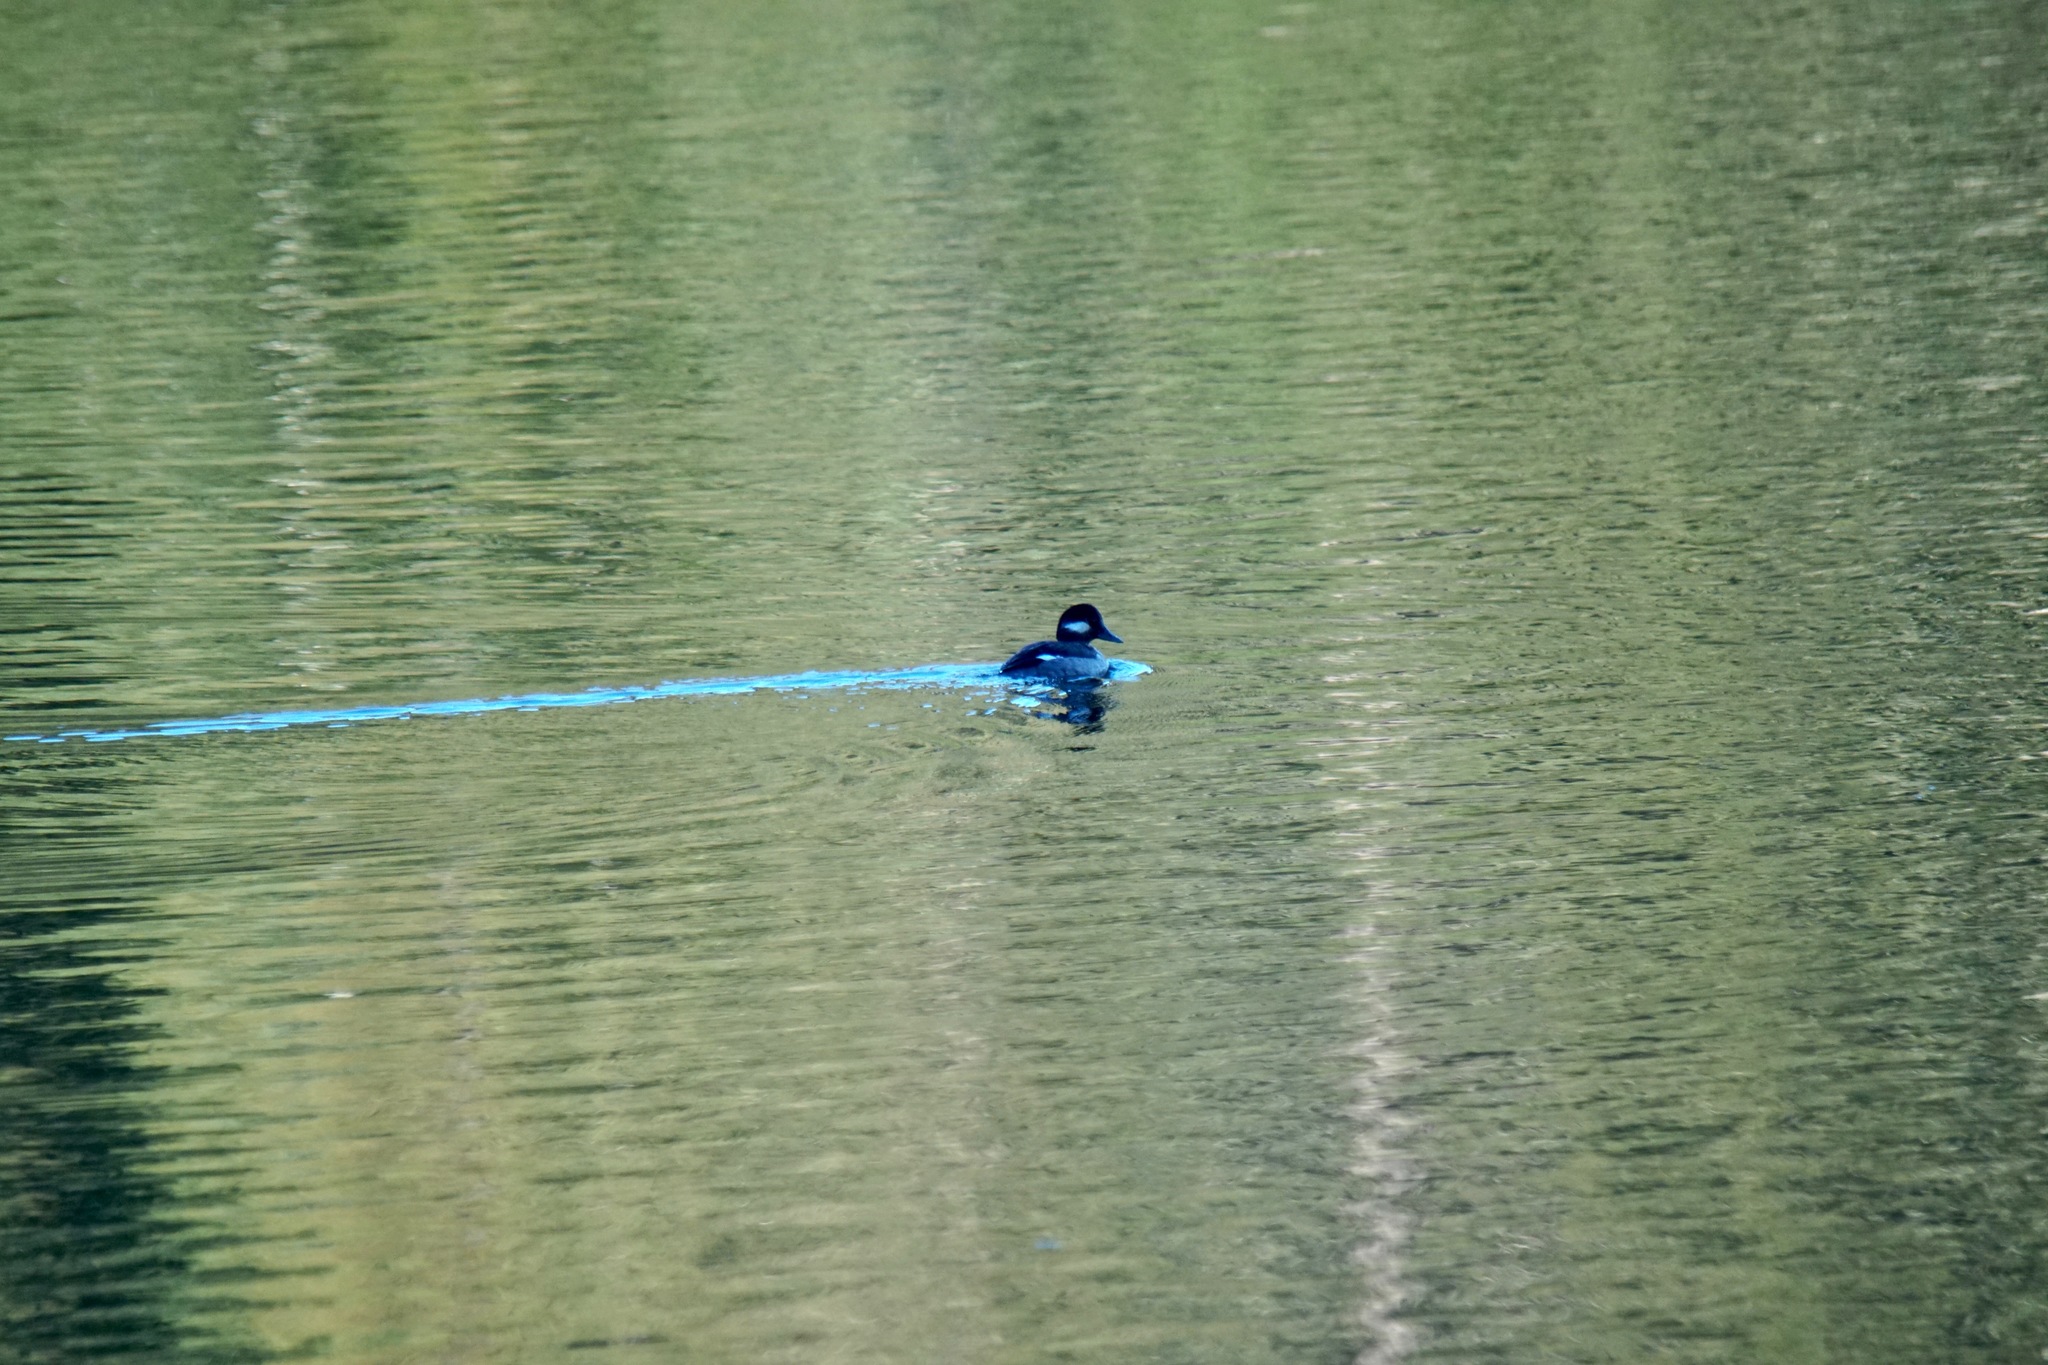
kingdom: Animalia
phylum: Chordata
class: Aves
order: Anseriformes
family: Anatidae
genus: Bucephala
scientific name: Bucephala albeola
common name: Bufflehead
